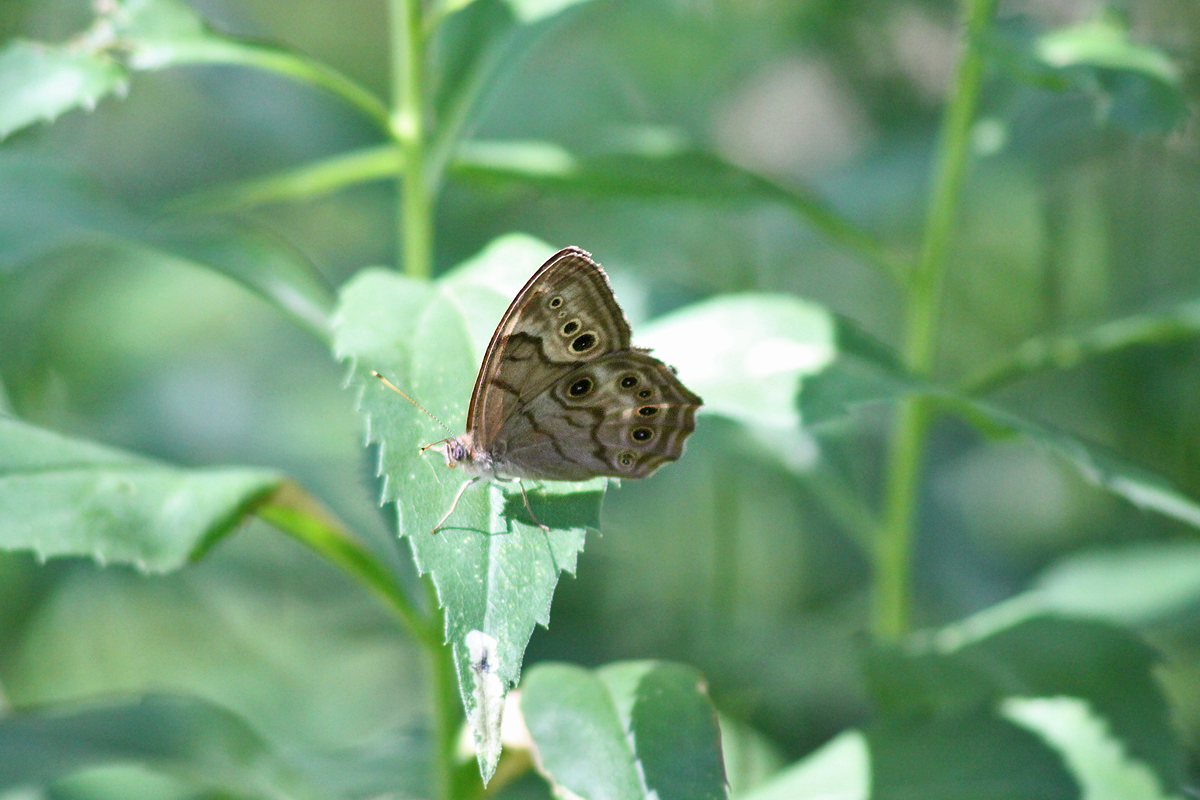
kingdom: Animalia
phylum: Arthropoda
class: Insecta
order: Lepidoptera
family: Nymphalidae
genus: Lethe
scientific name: Lethe anthedon
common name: Northern pearly-eye
